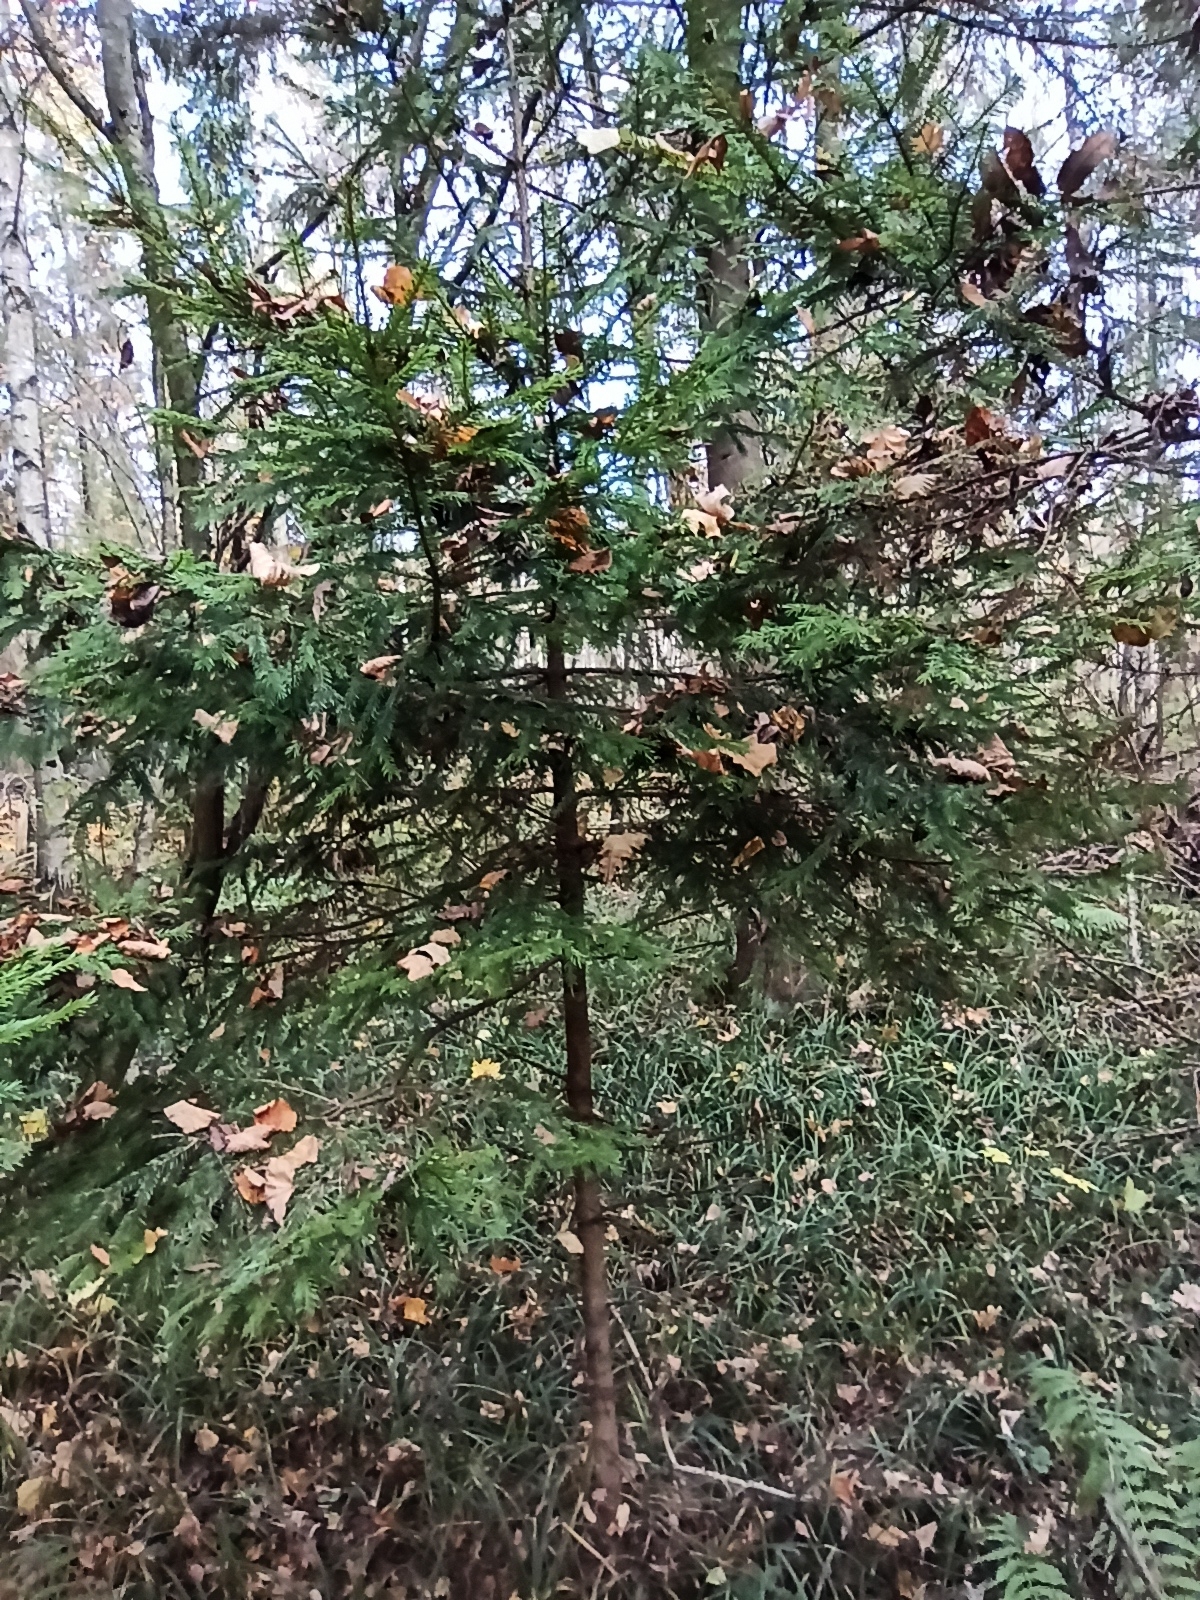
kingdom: Plantae
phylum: Tracheophyta
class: Pinopsida
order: Pinales
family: Pinaceae
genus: Picea
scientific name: Picea abies
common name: Norway spruce
